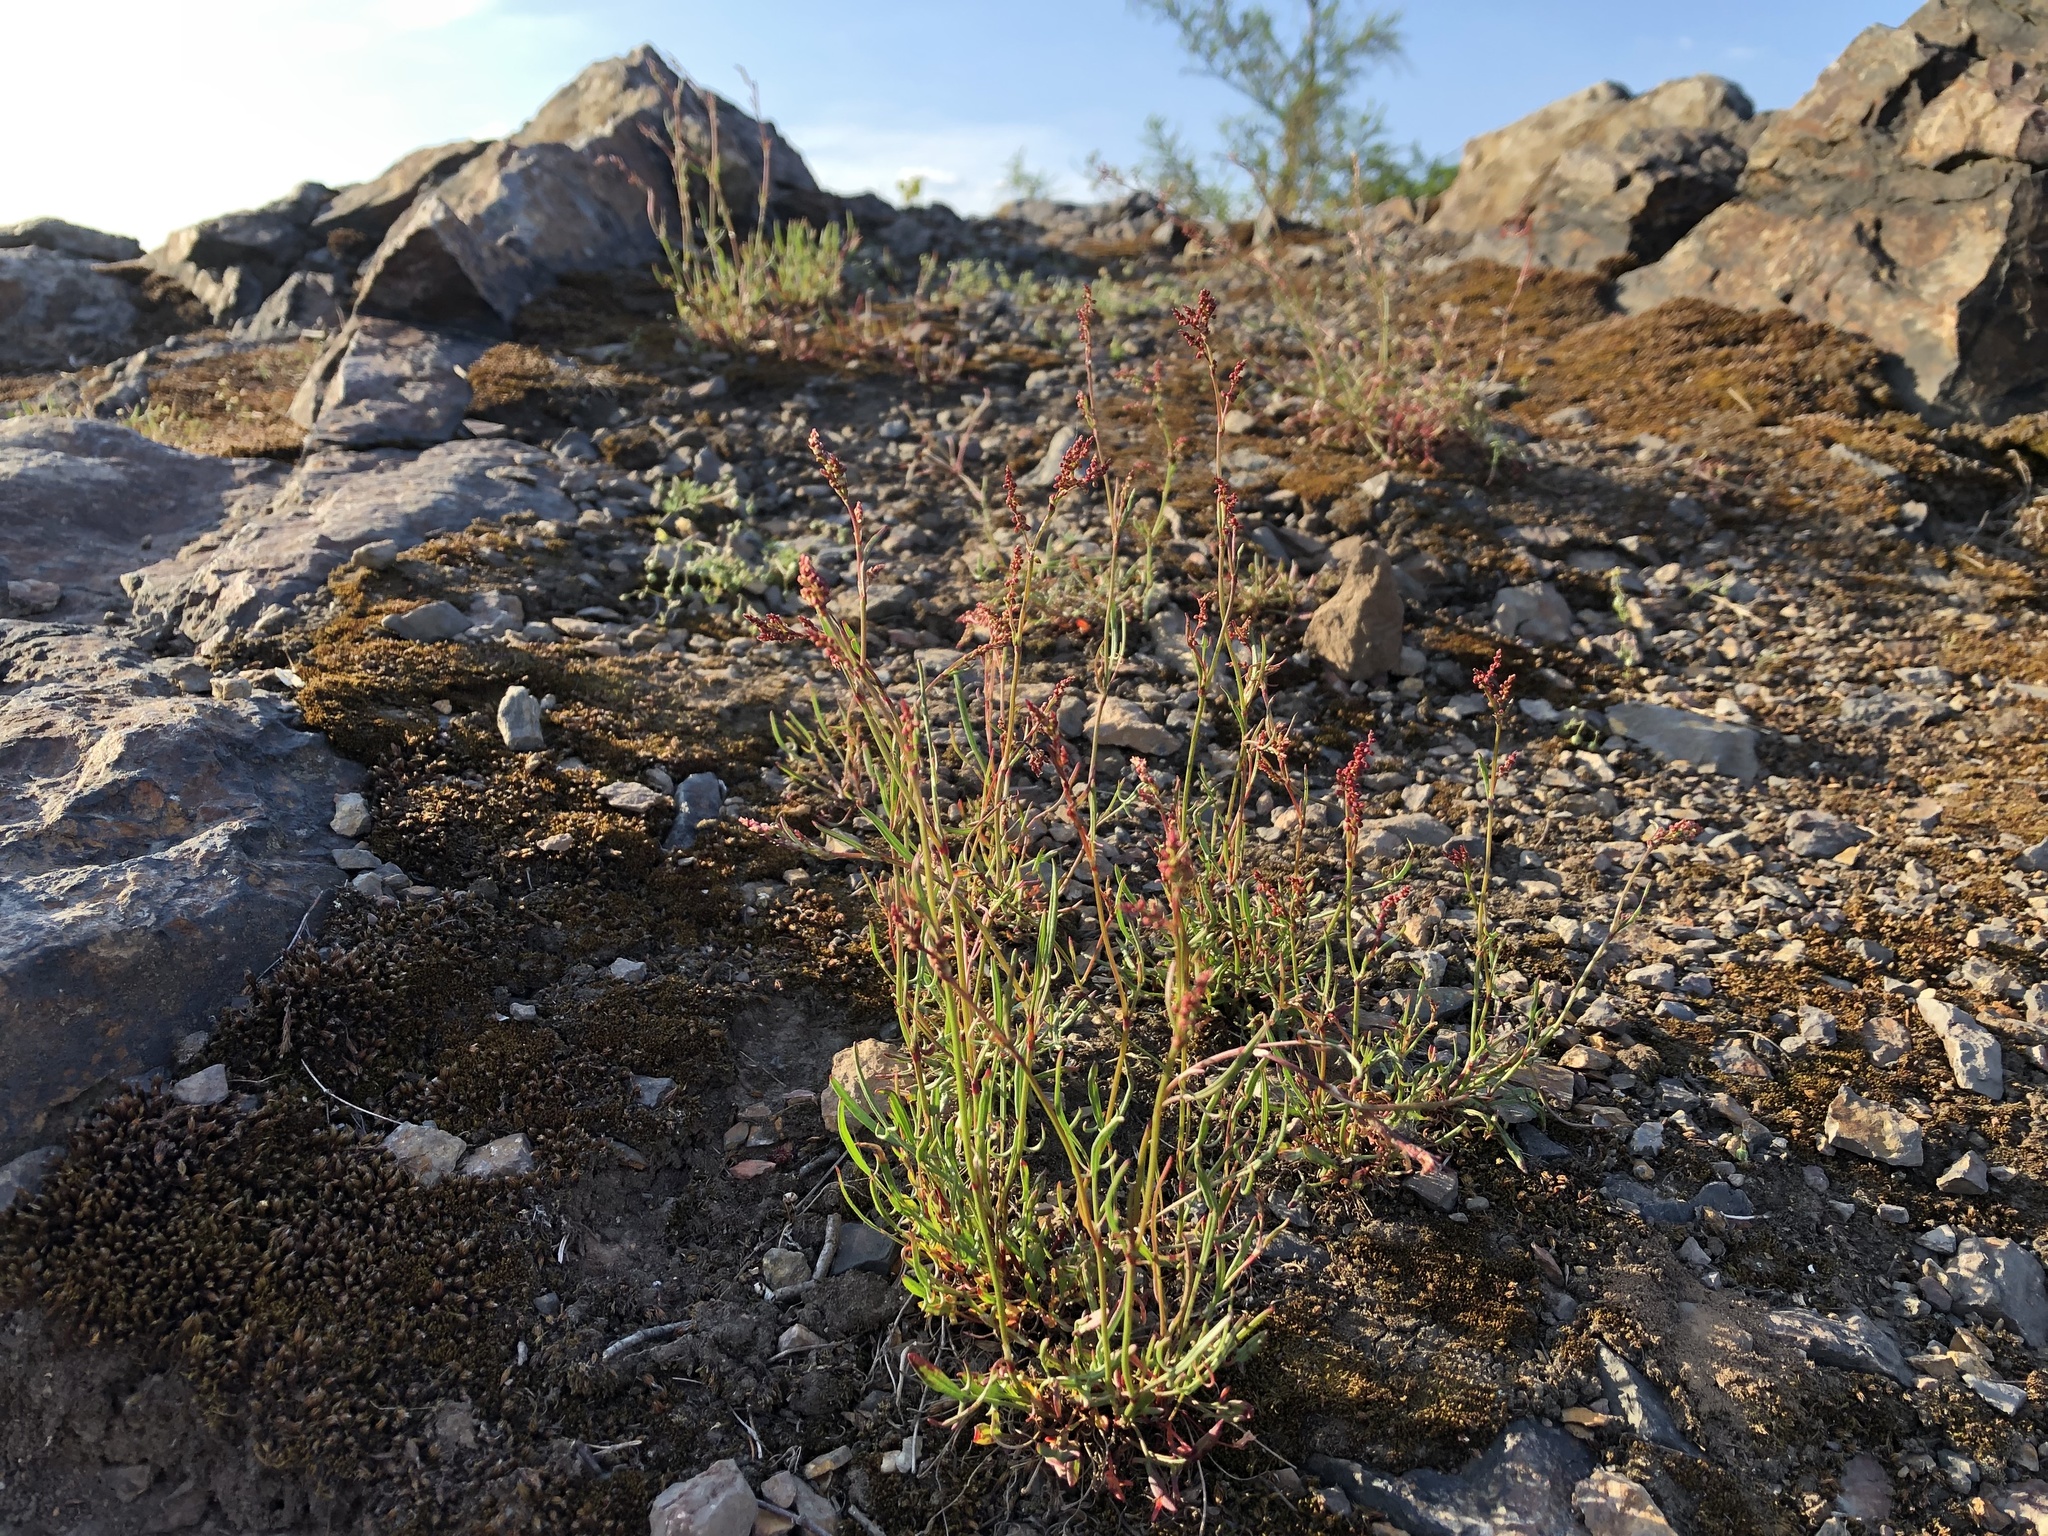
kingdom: Plantae
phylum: Tracheophyta
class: Magnoliopsida
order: Caryophyllales
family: Polygonaceae
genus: Rumex
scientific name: Rumex acetosella
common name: Common sheep sorrel
